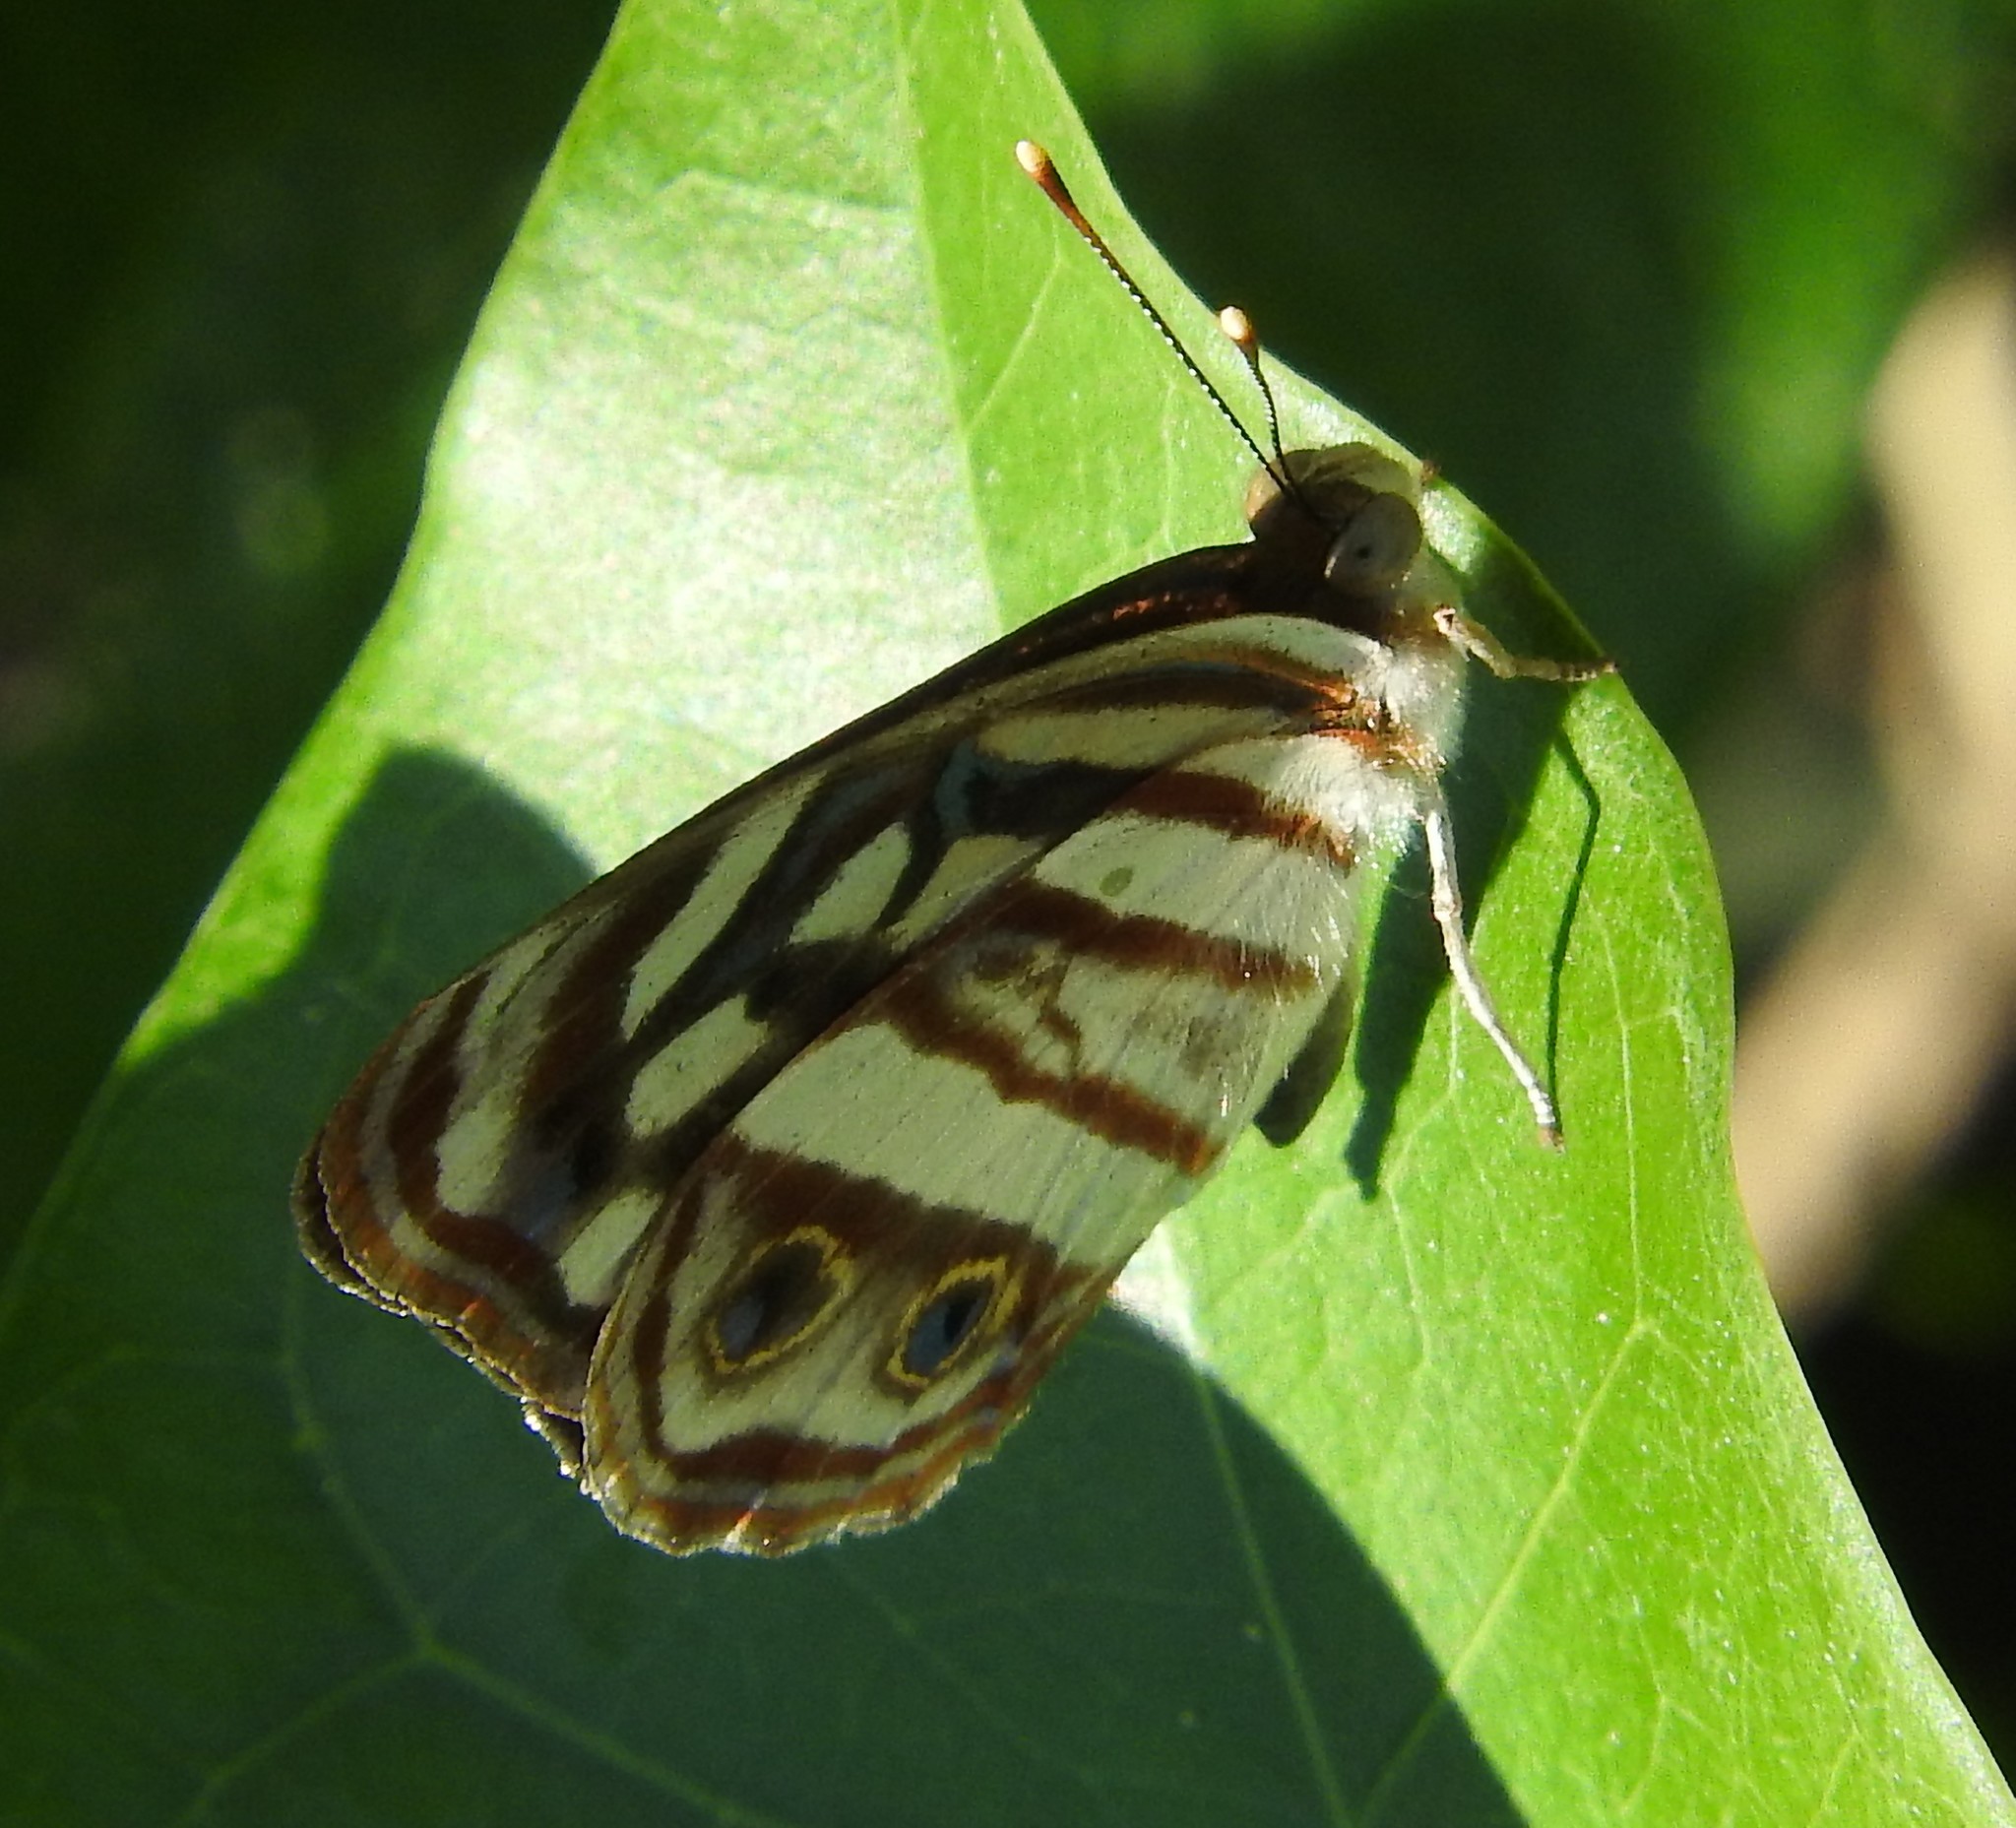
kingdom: Animalia
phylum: Arthropoda
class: Insecta
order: Lepidoptera
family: Nymphalidae
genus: Dynamine
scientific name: Dynamine mylitta
